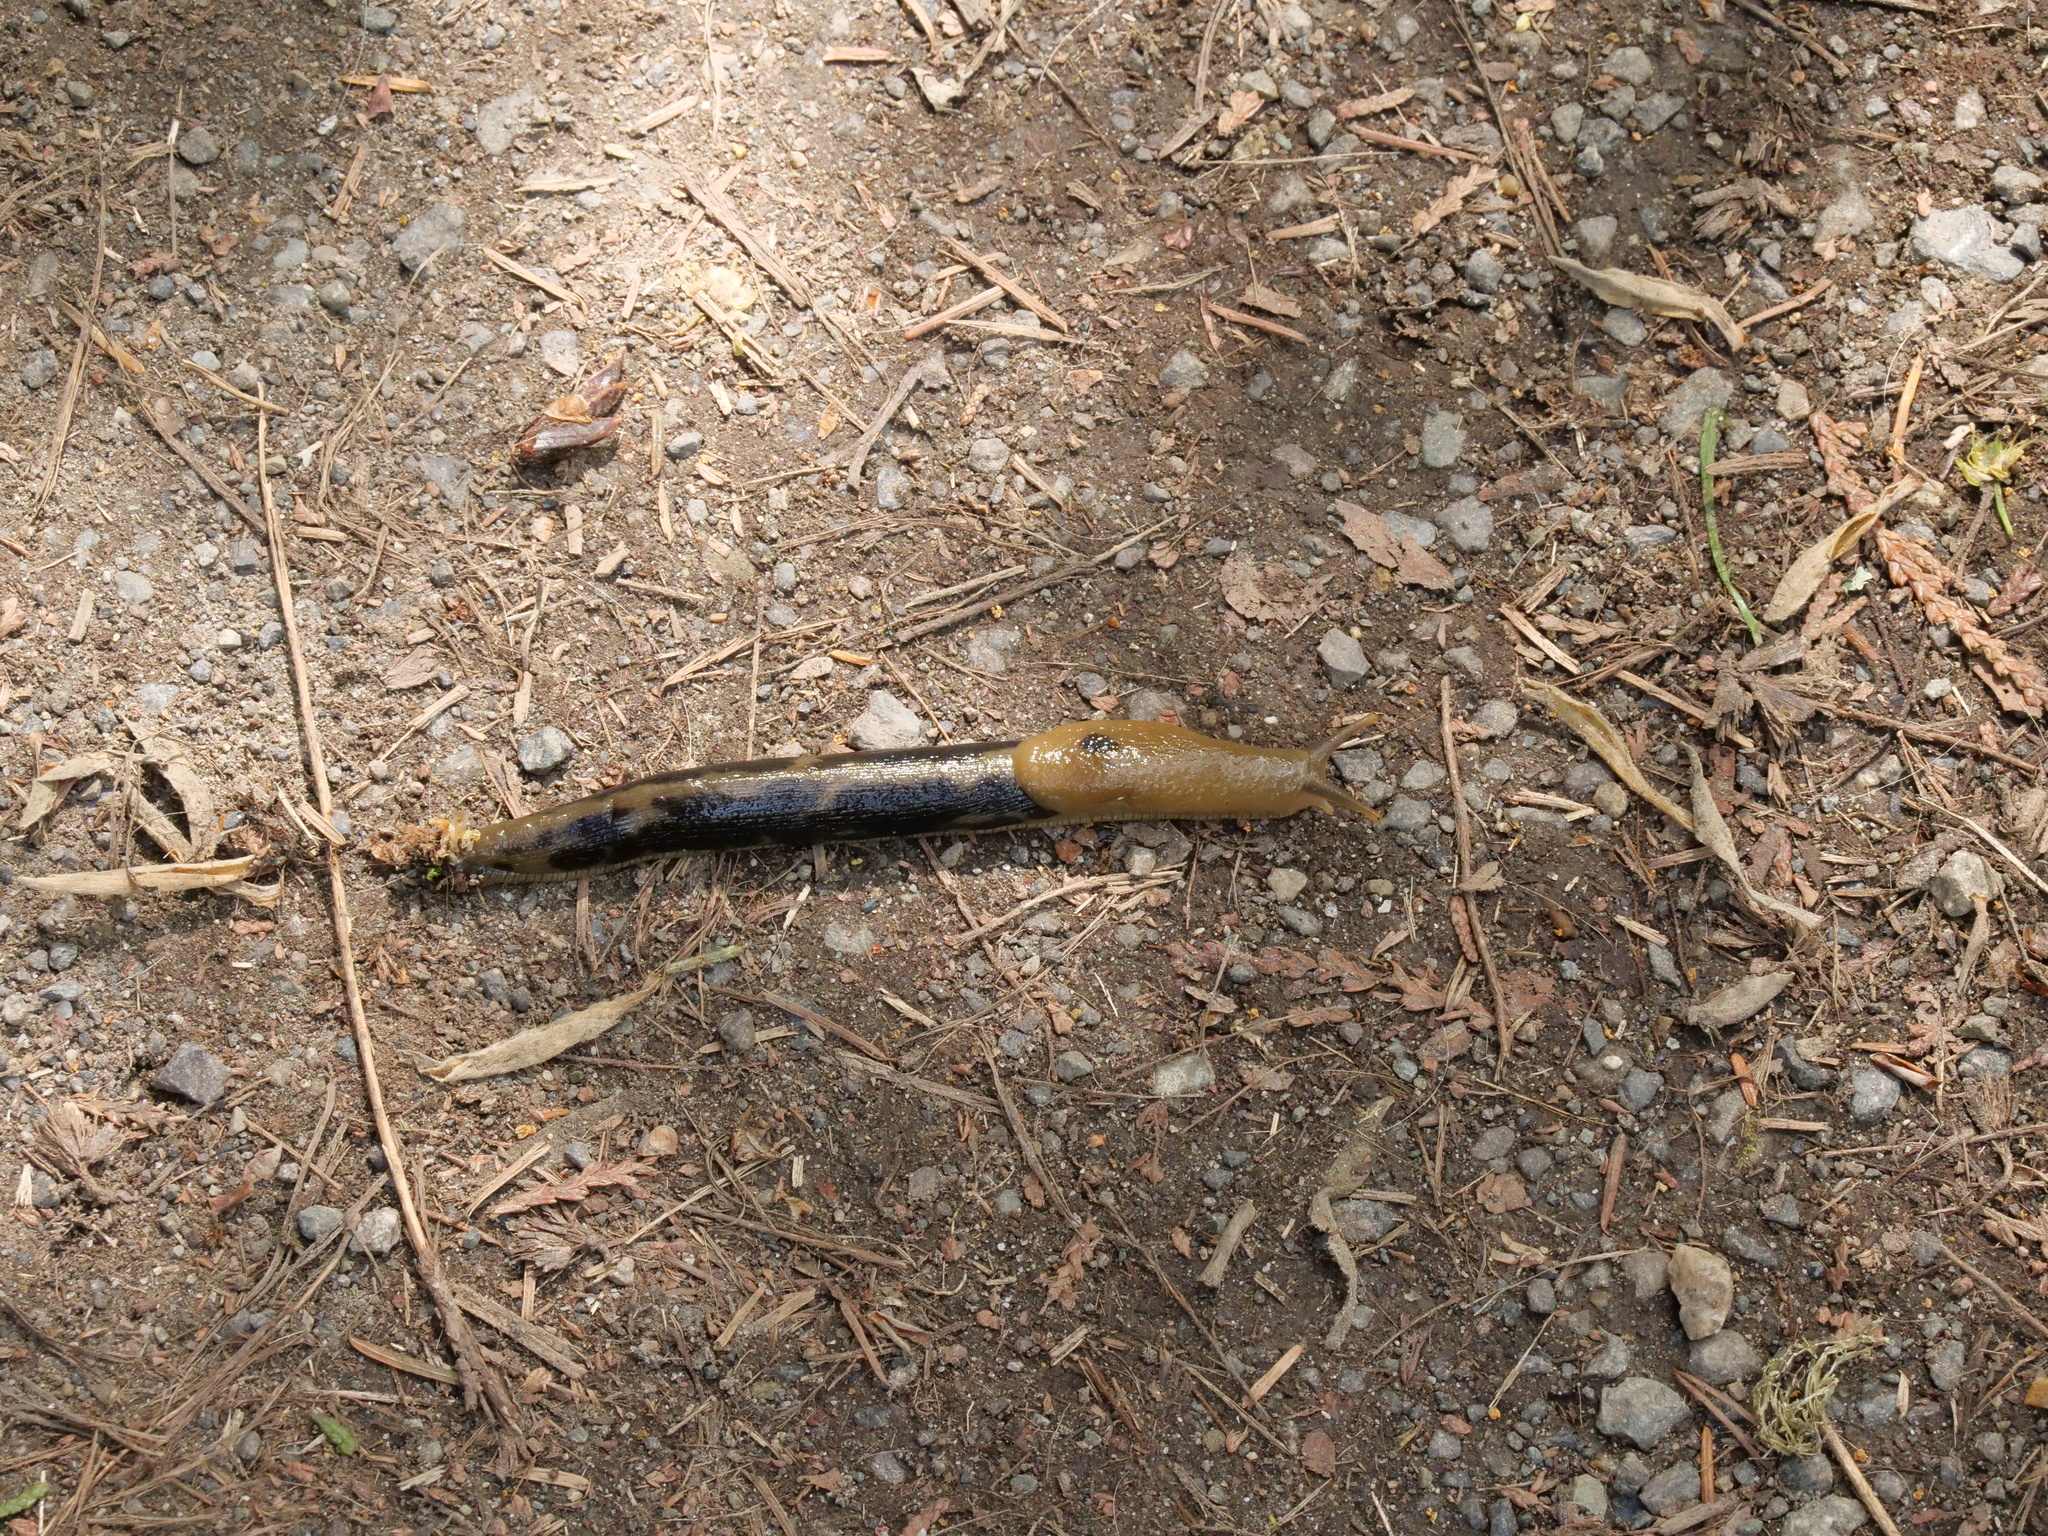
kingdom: Animalia
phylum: Mollusca
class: Gastropoda
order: Stylommatophora
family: Ariolimacidae
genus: Ariolimax
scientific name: Ariolimax columbianus
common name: Pacific banana slug
